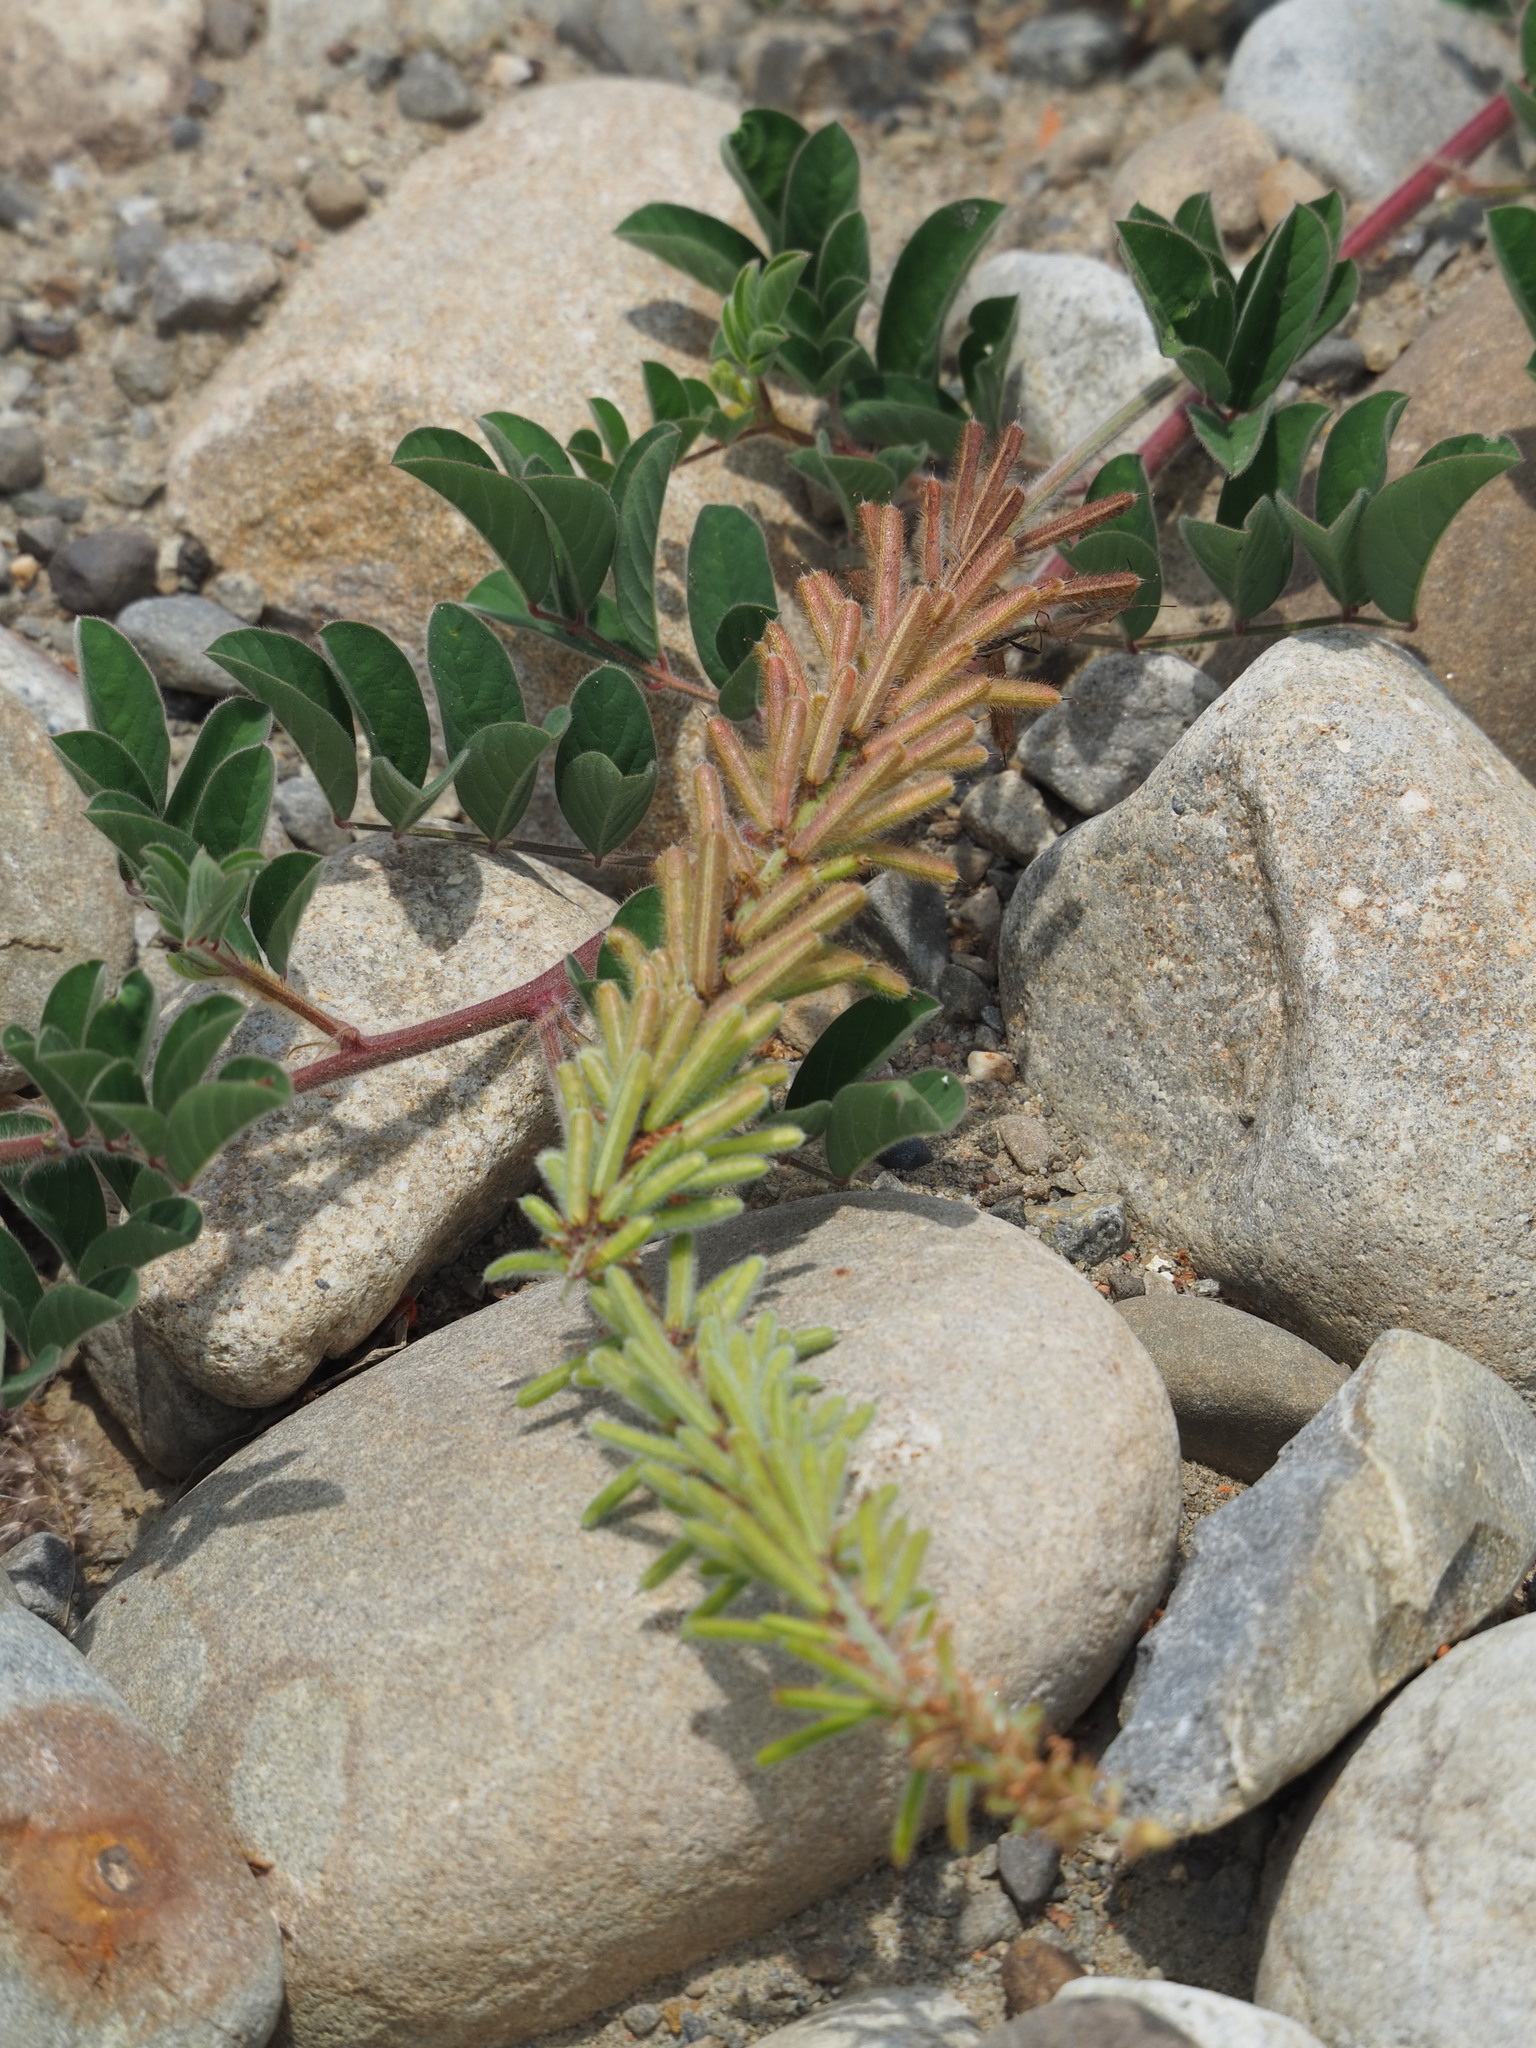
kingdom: Plantae
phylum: Tracheophyta
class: Magnoliopsida
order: Fabales
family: Fabaceae
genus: Indigofera
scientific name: Indigofera hirsuta
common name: Hairy indigo
